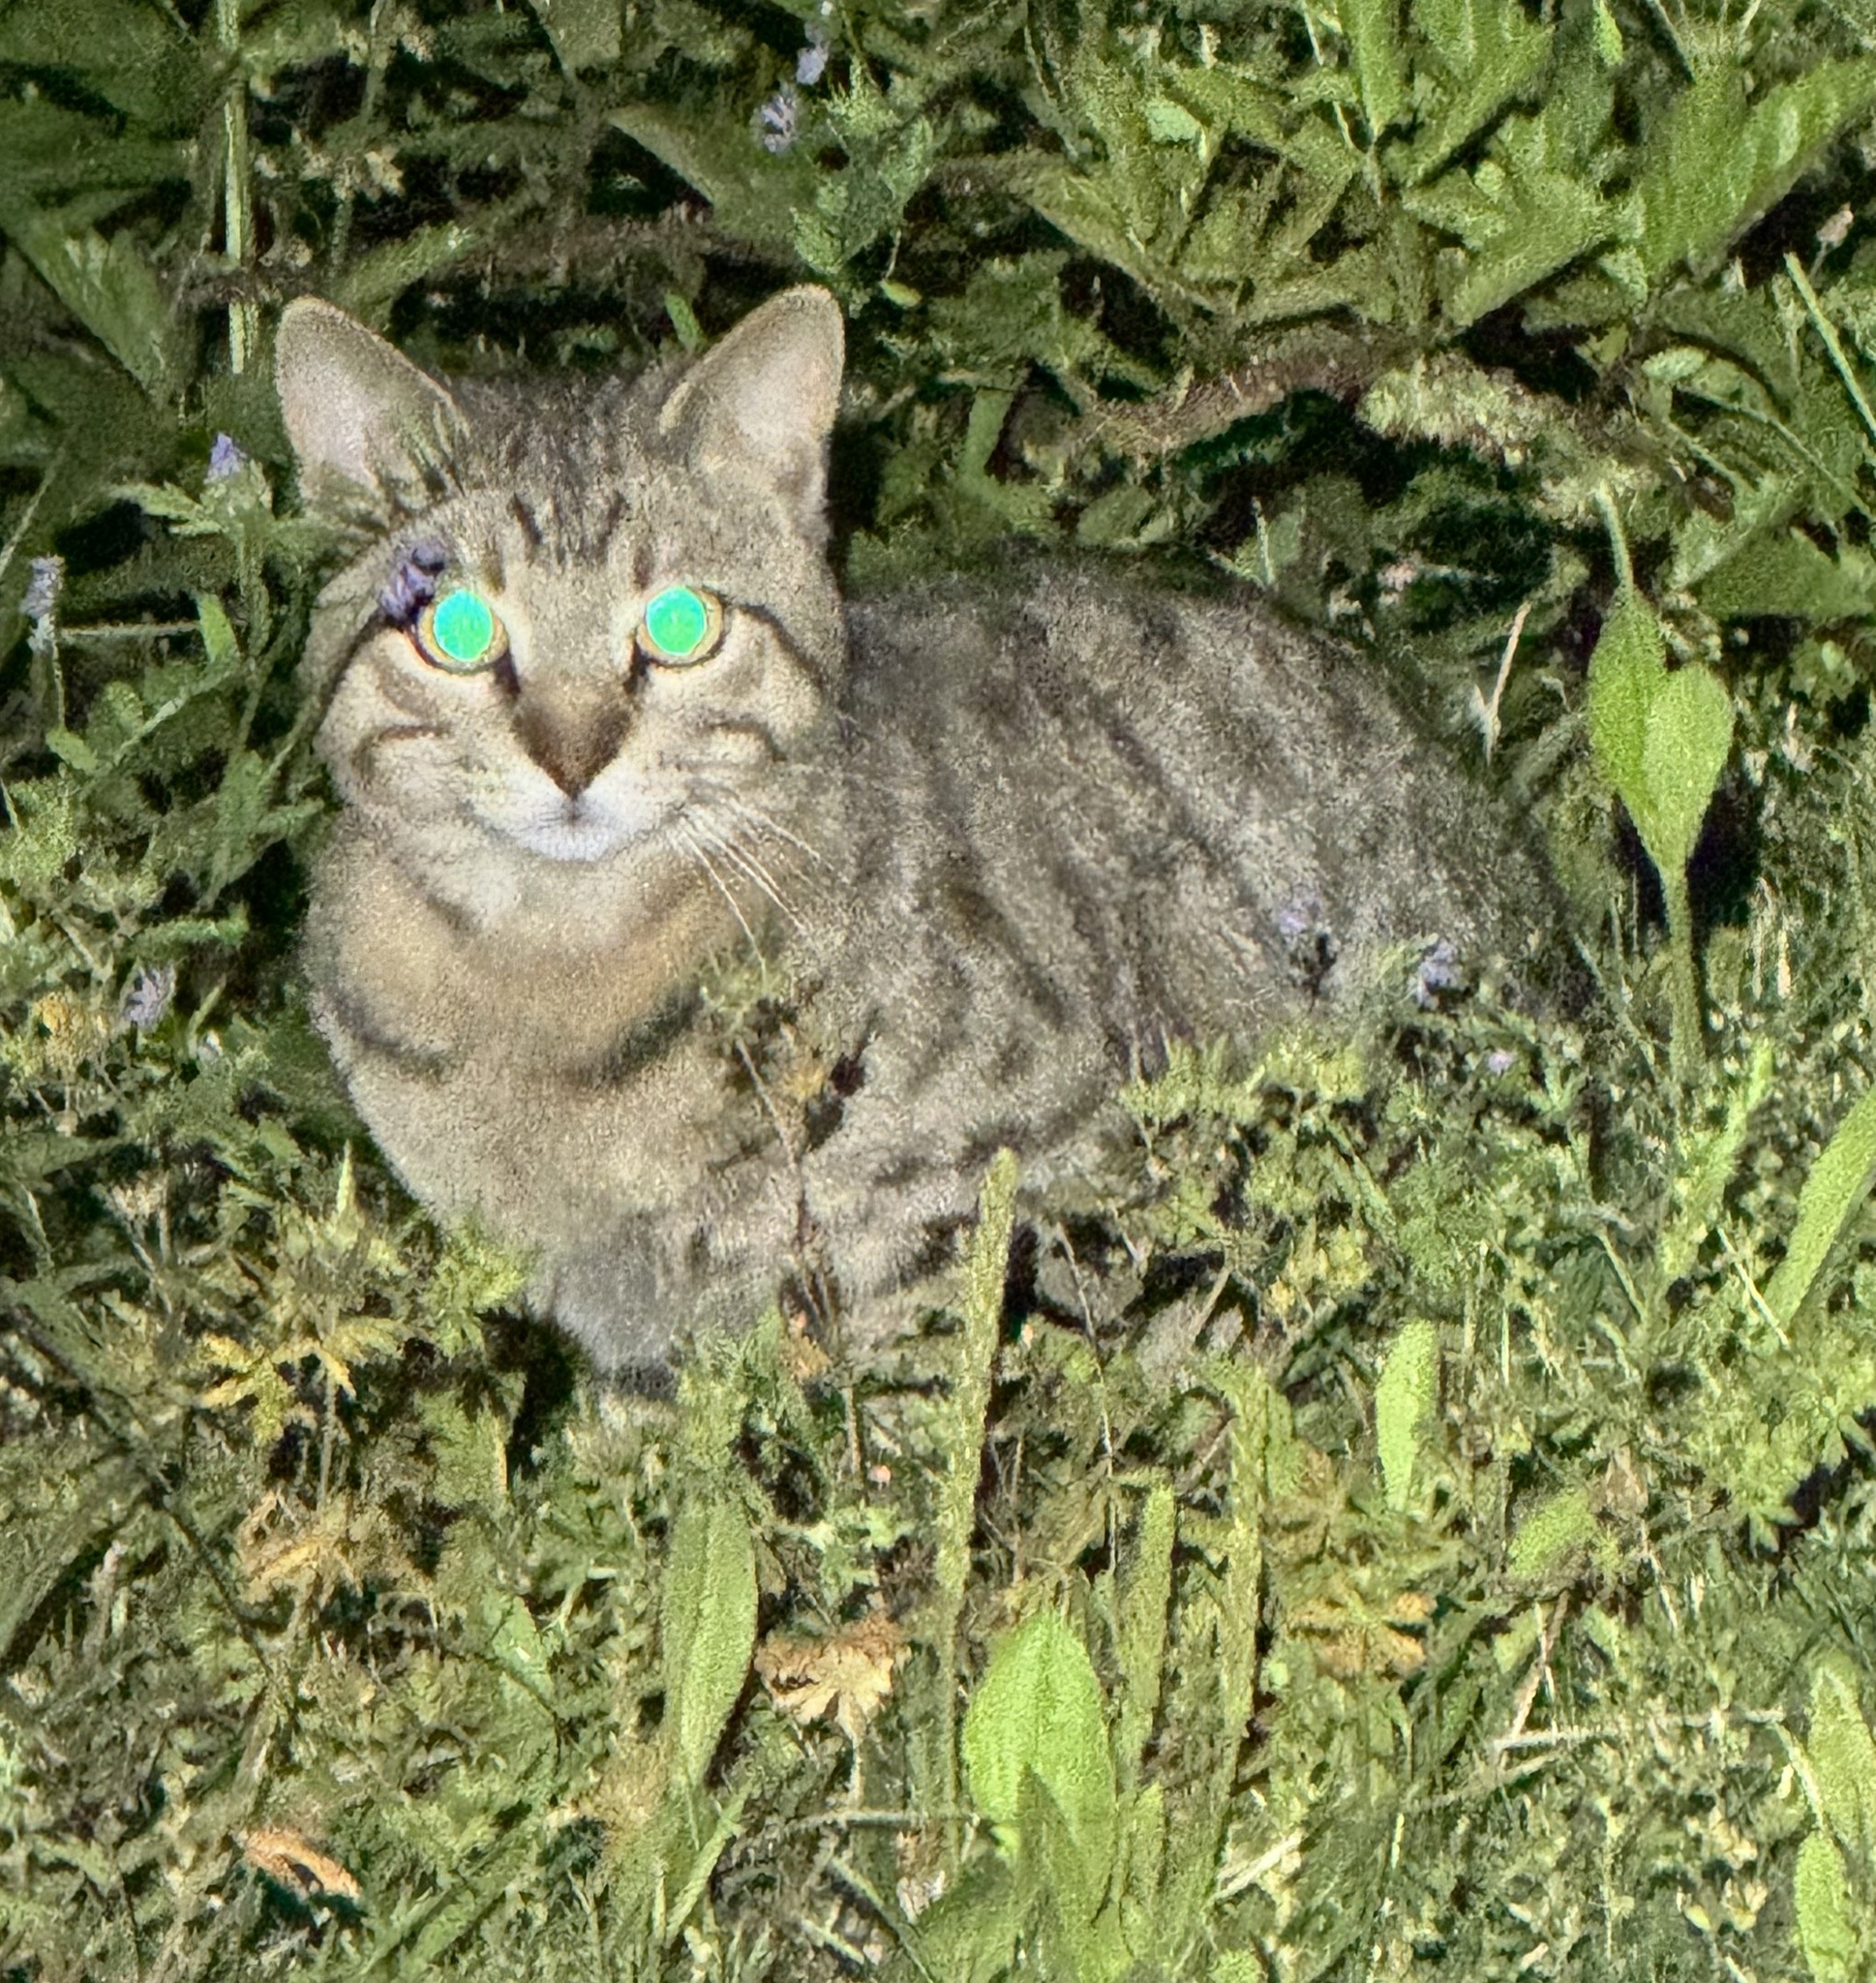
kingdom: Animalia
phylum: Chordata
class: Mammalia
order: Carnivora
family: Felidae
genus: Felis
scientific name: Felis catus
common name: Domestic cat
